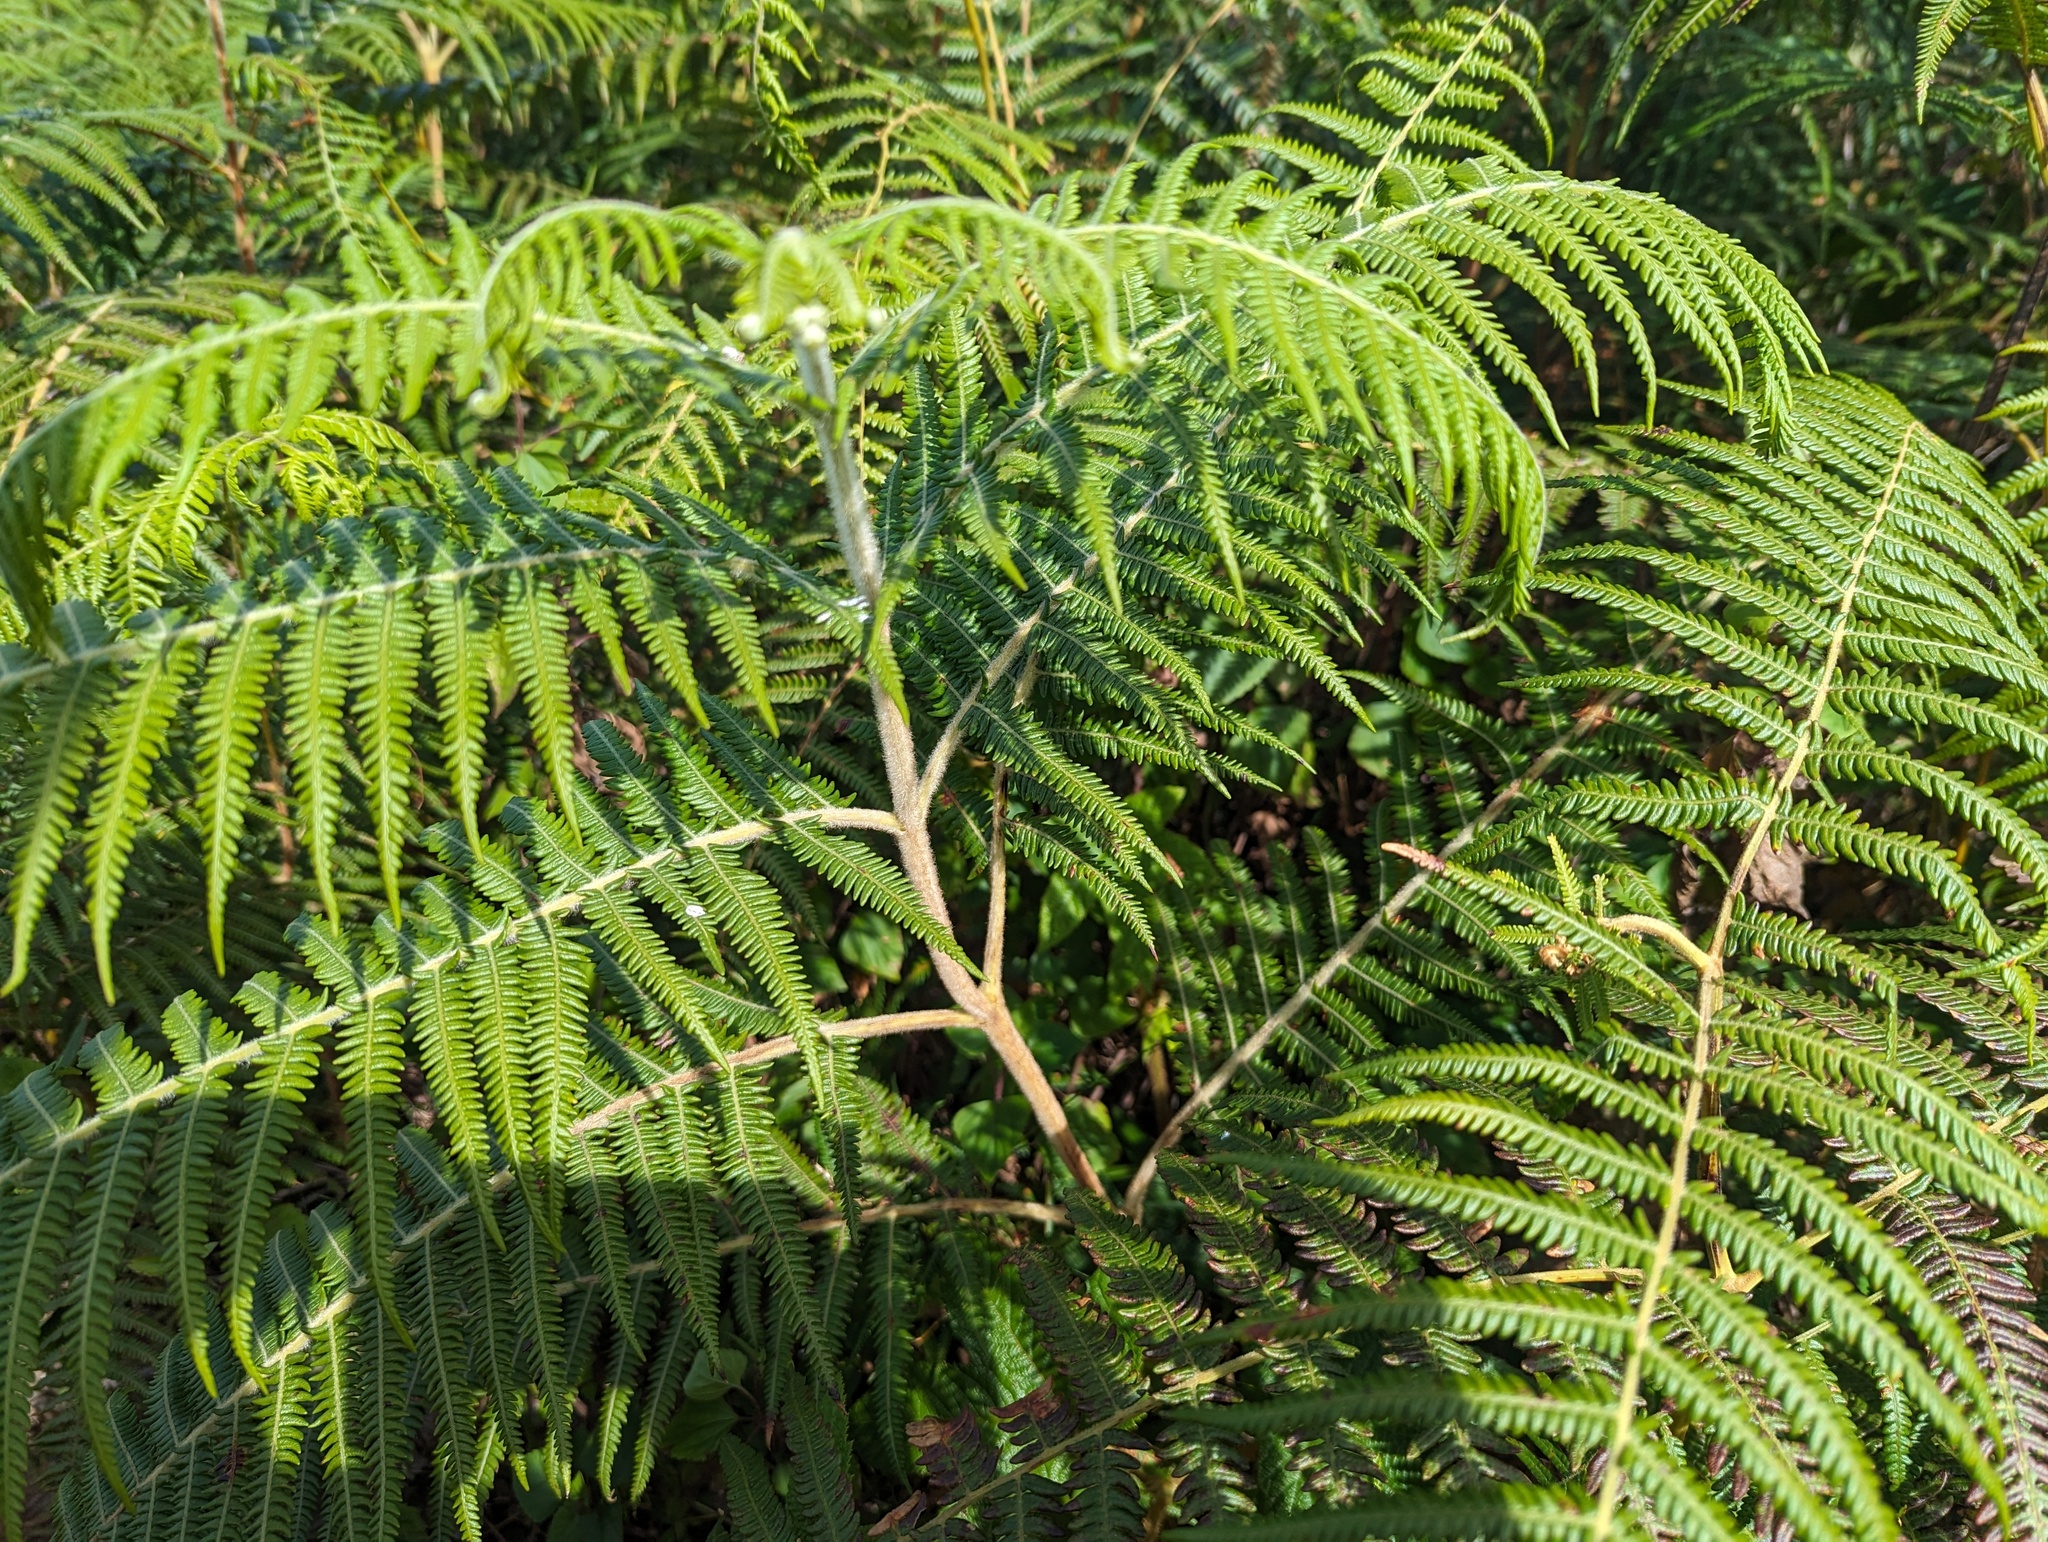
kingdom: Plantae
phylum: Tracheophyta
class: Polypodiopsida
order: Polypodiales
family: Dennstaedtiaceae
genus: Pteridium
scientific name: Pteridium aquilinum
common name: Bracken
